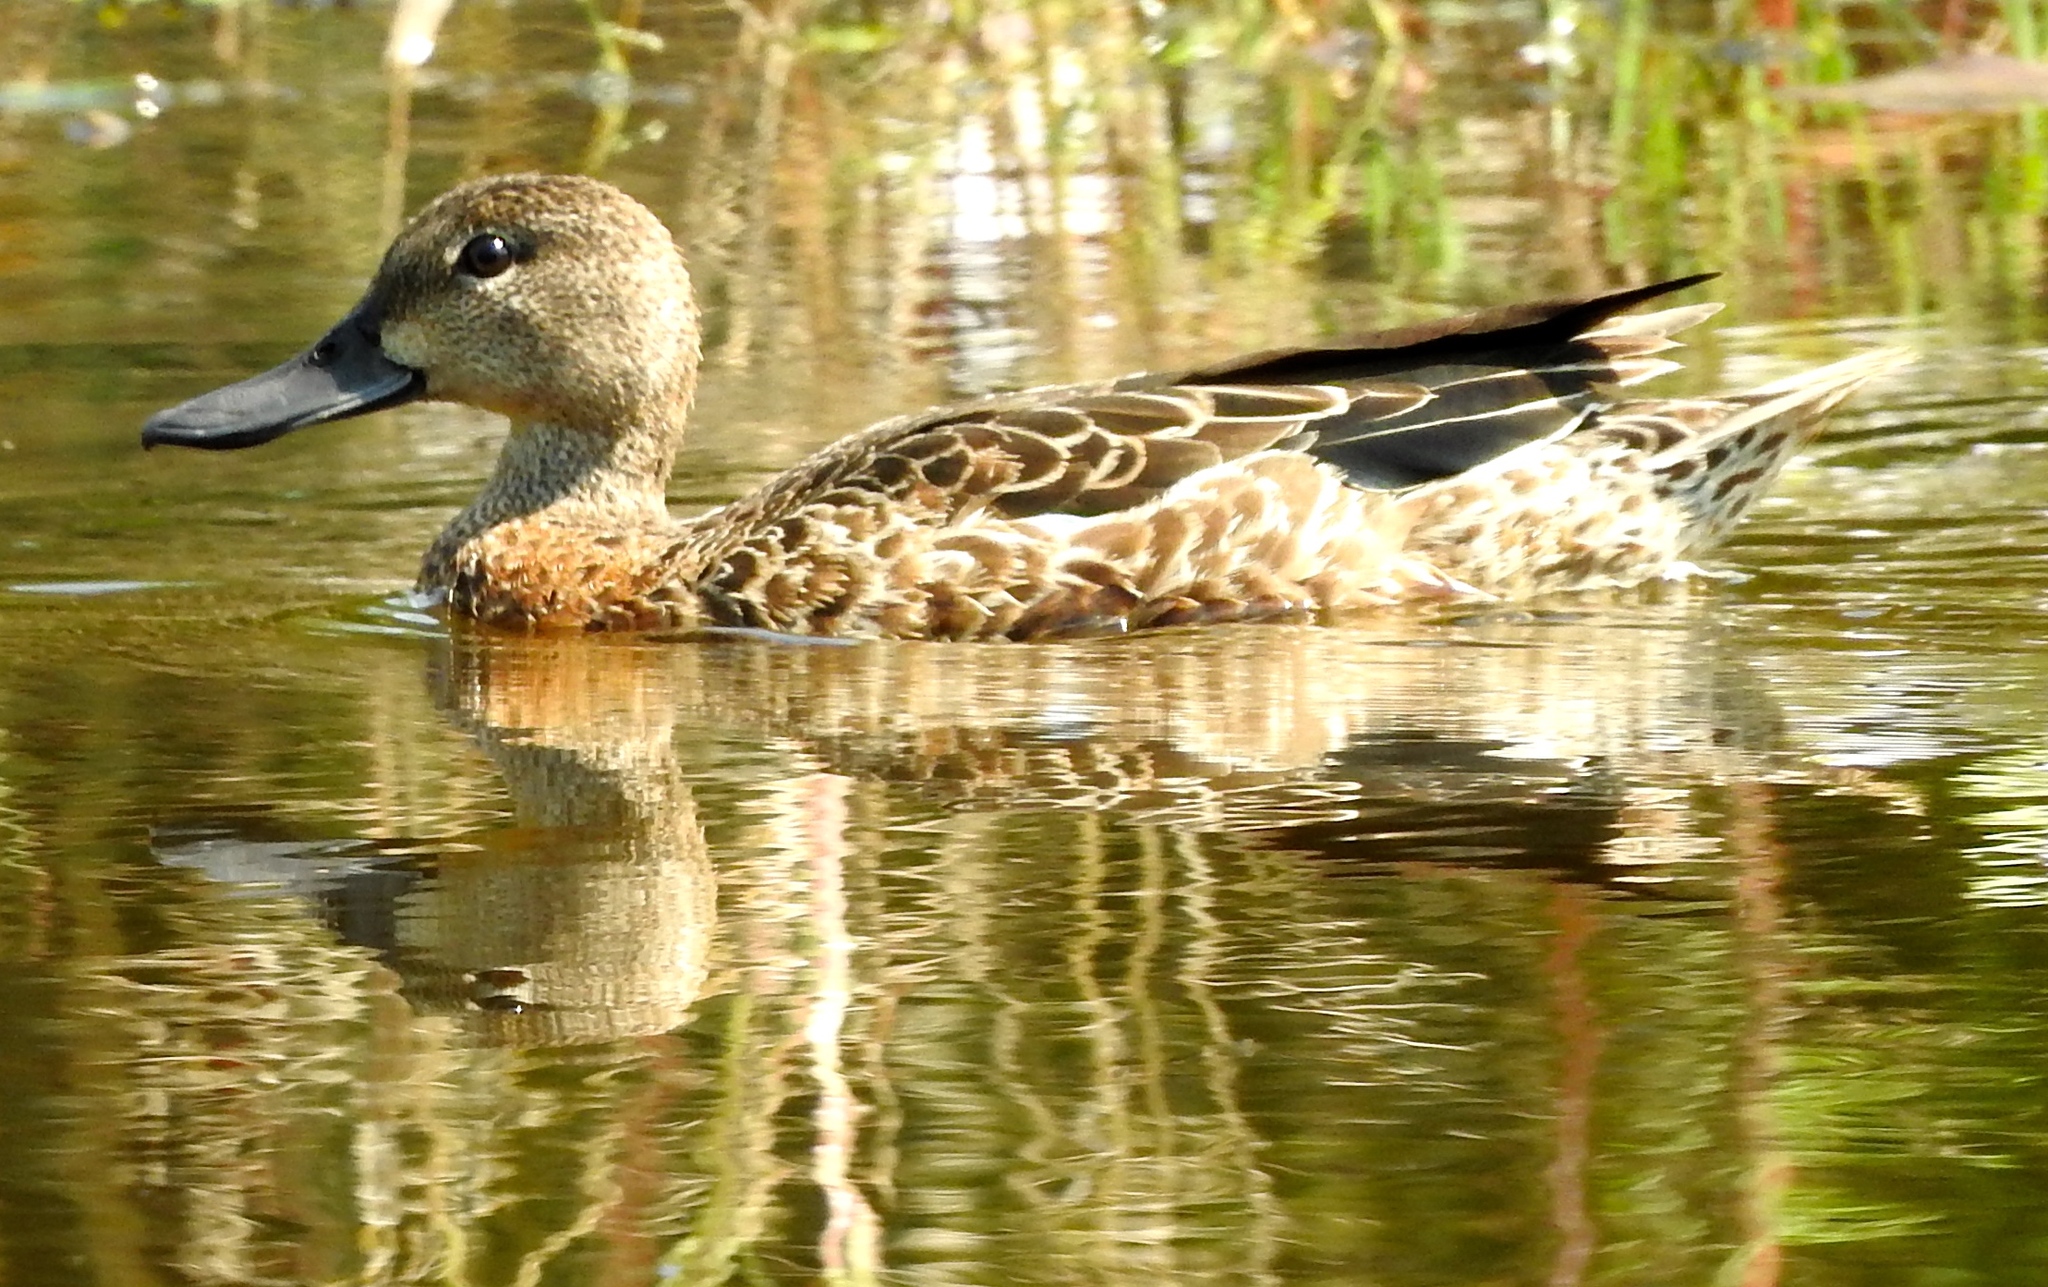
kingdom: Animalia
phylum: Chordata
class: Aves
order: Anseriformes
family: Anatidae
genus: Spatula
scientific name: Spatula discors
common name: Blue-winged teal
